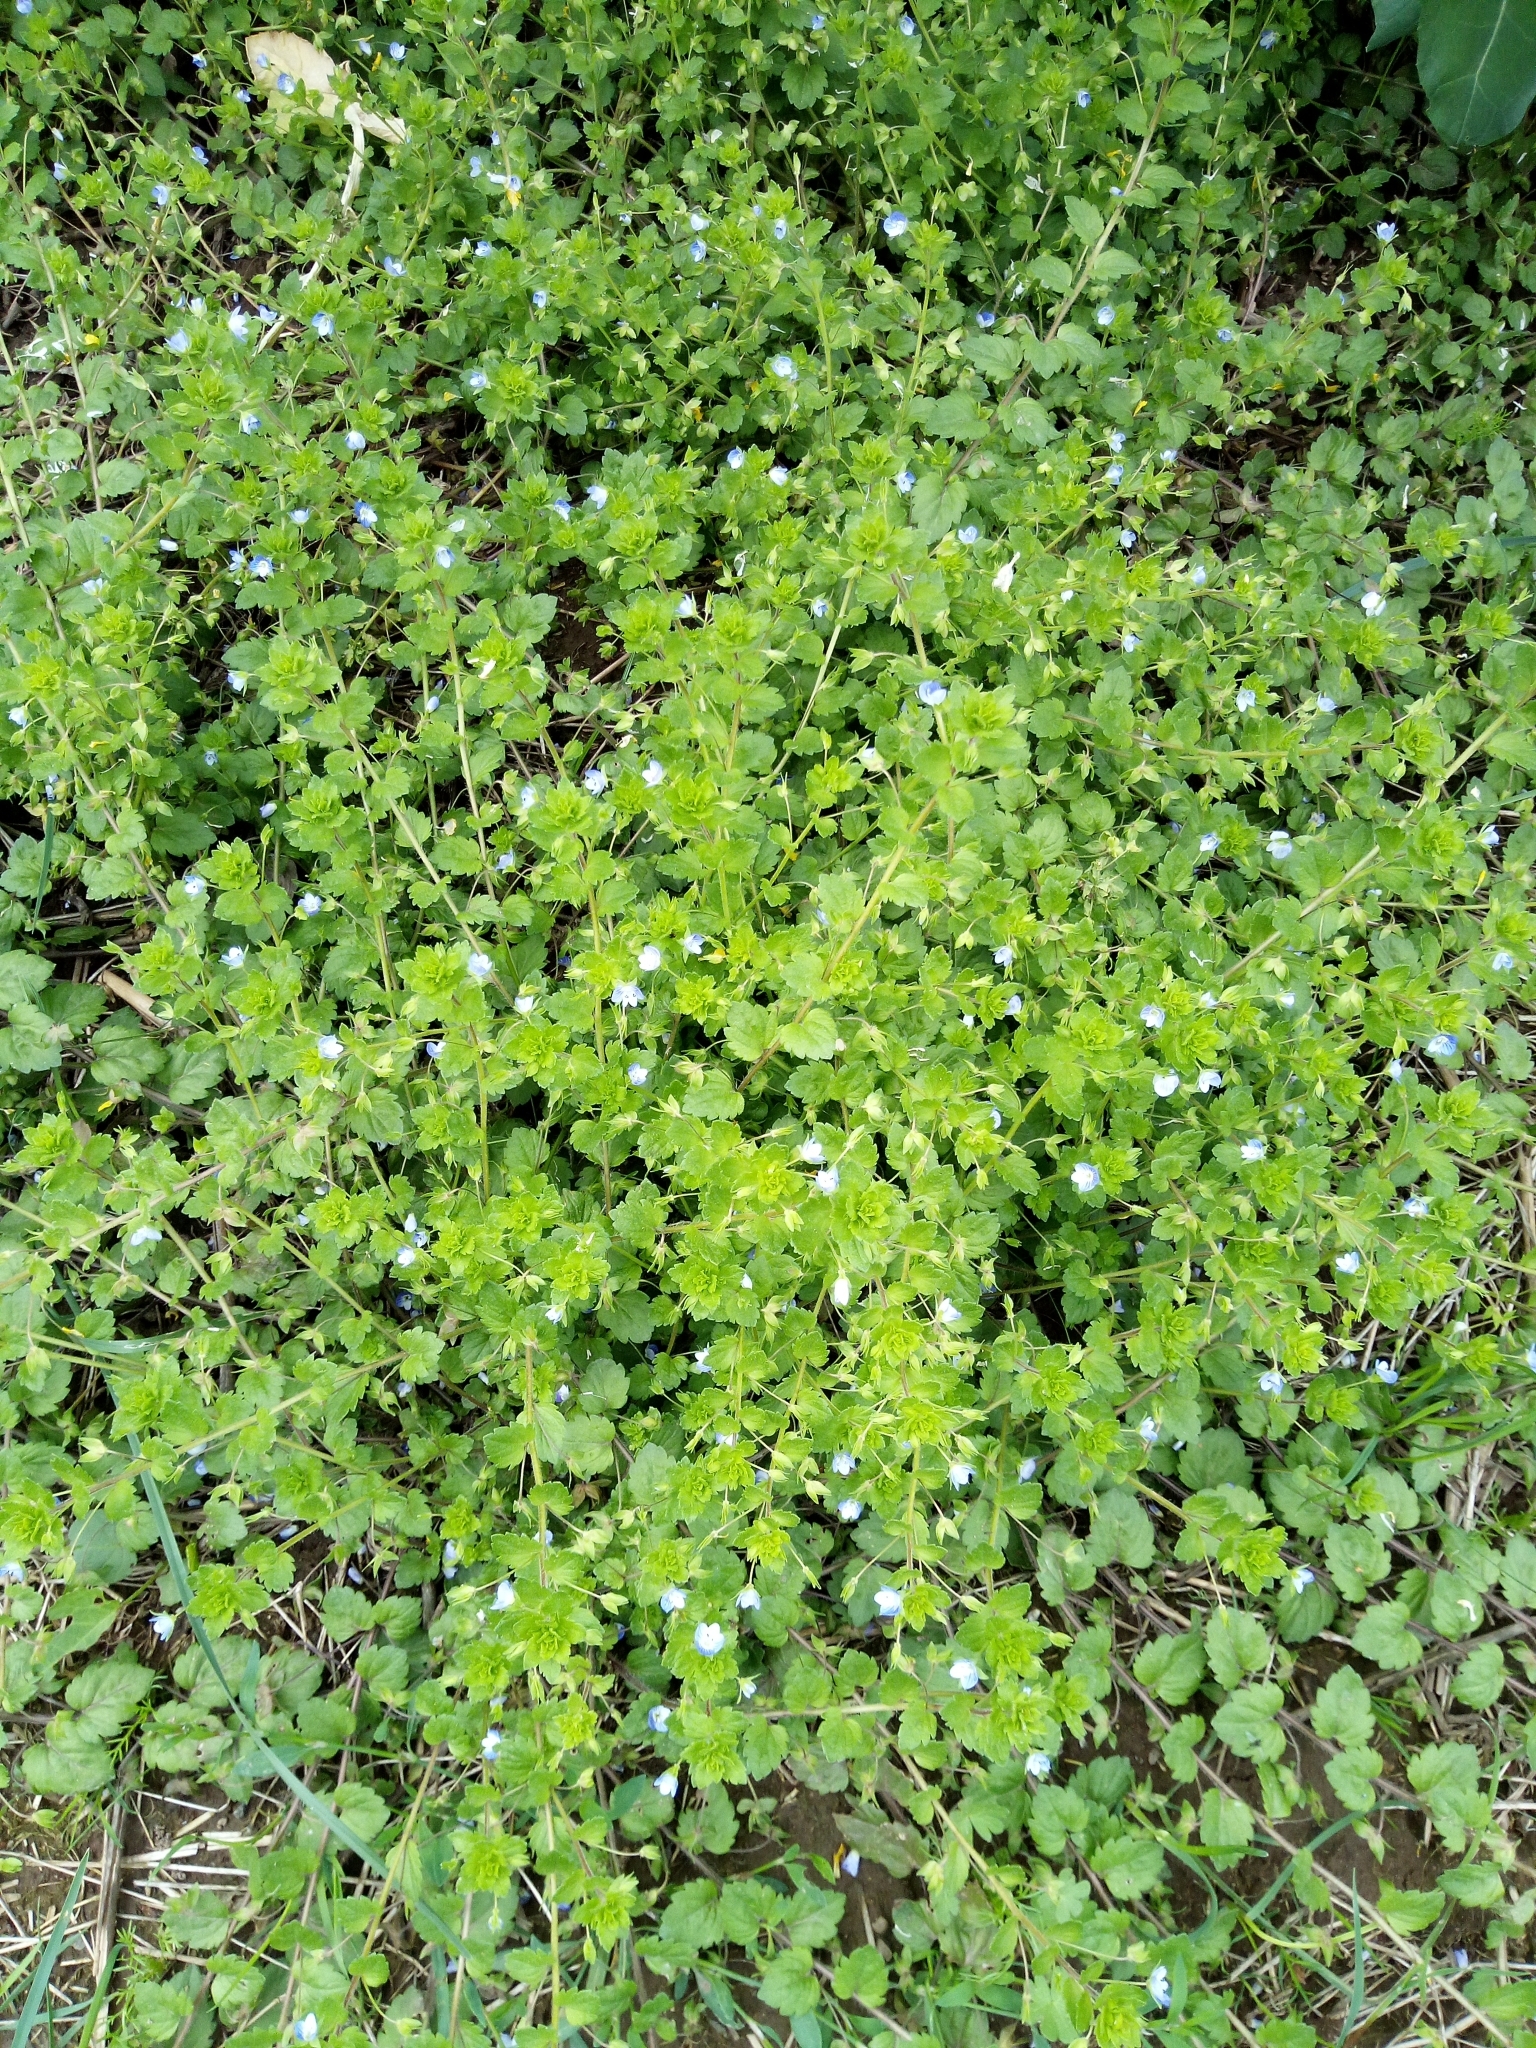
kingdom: Plantae
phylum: Tracheophyta
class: Magnoliopsida
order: Lamiales
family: Plantaginaceae
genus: Veronica
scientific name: Veronica persica
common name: Common field-speedwell
